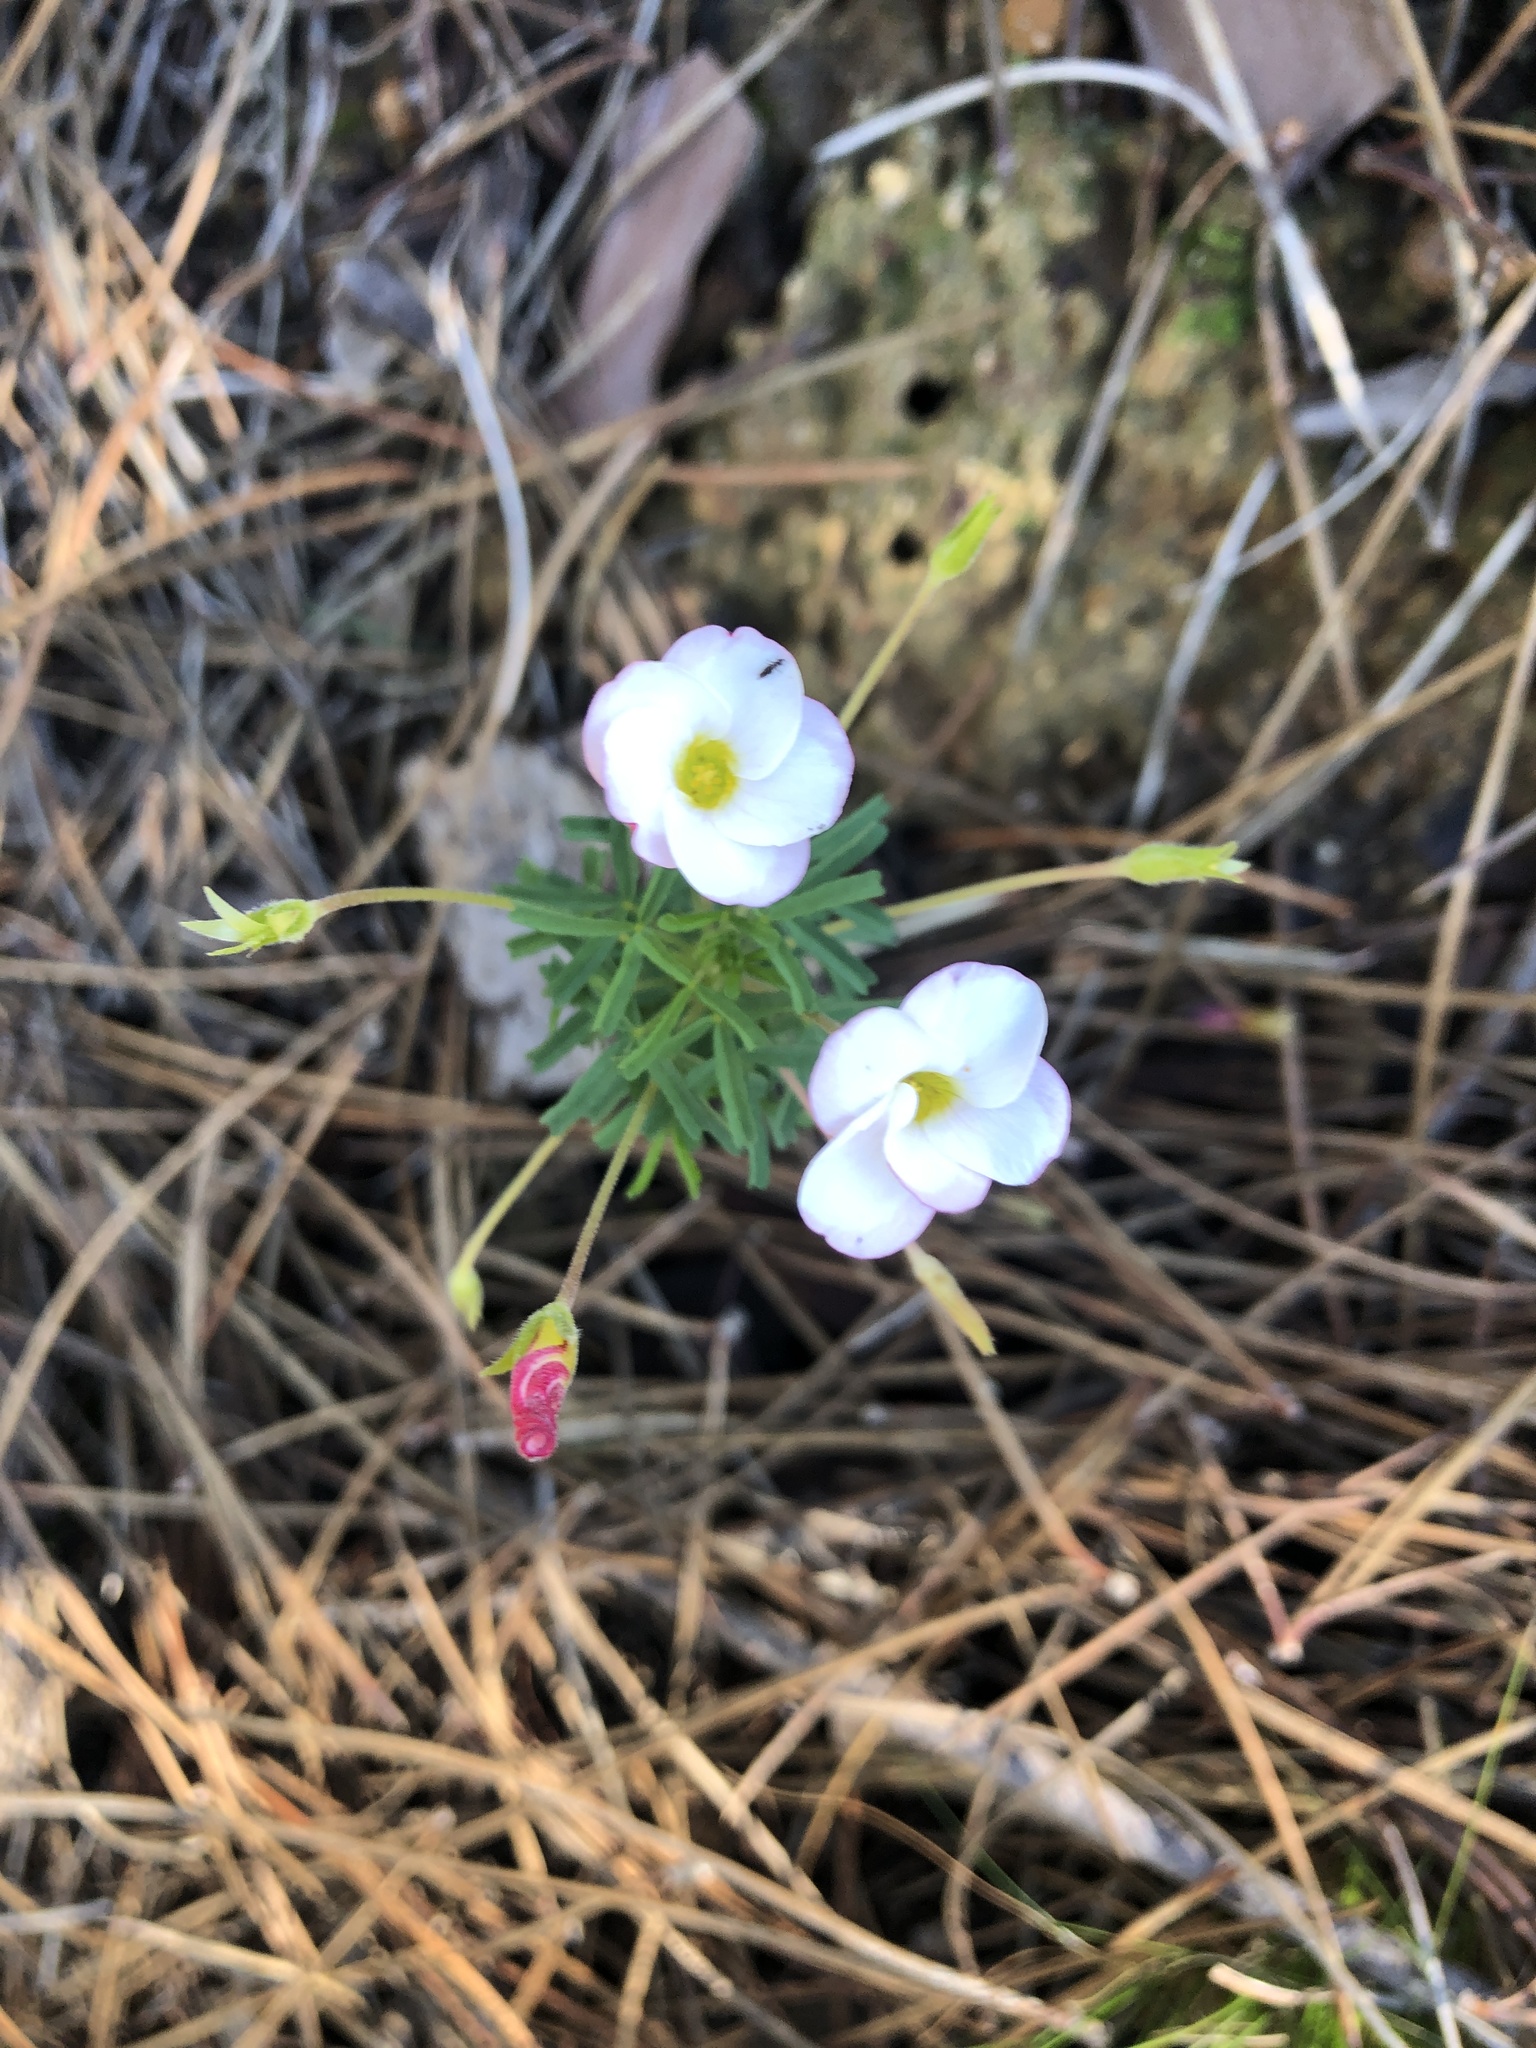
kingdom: Plantae
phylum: Tracheophyta
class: Magnoliopsida
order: Oxalidales
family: Oxalidaceae
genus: Oxalis
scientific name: Oxalis tenuifolia
